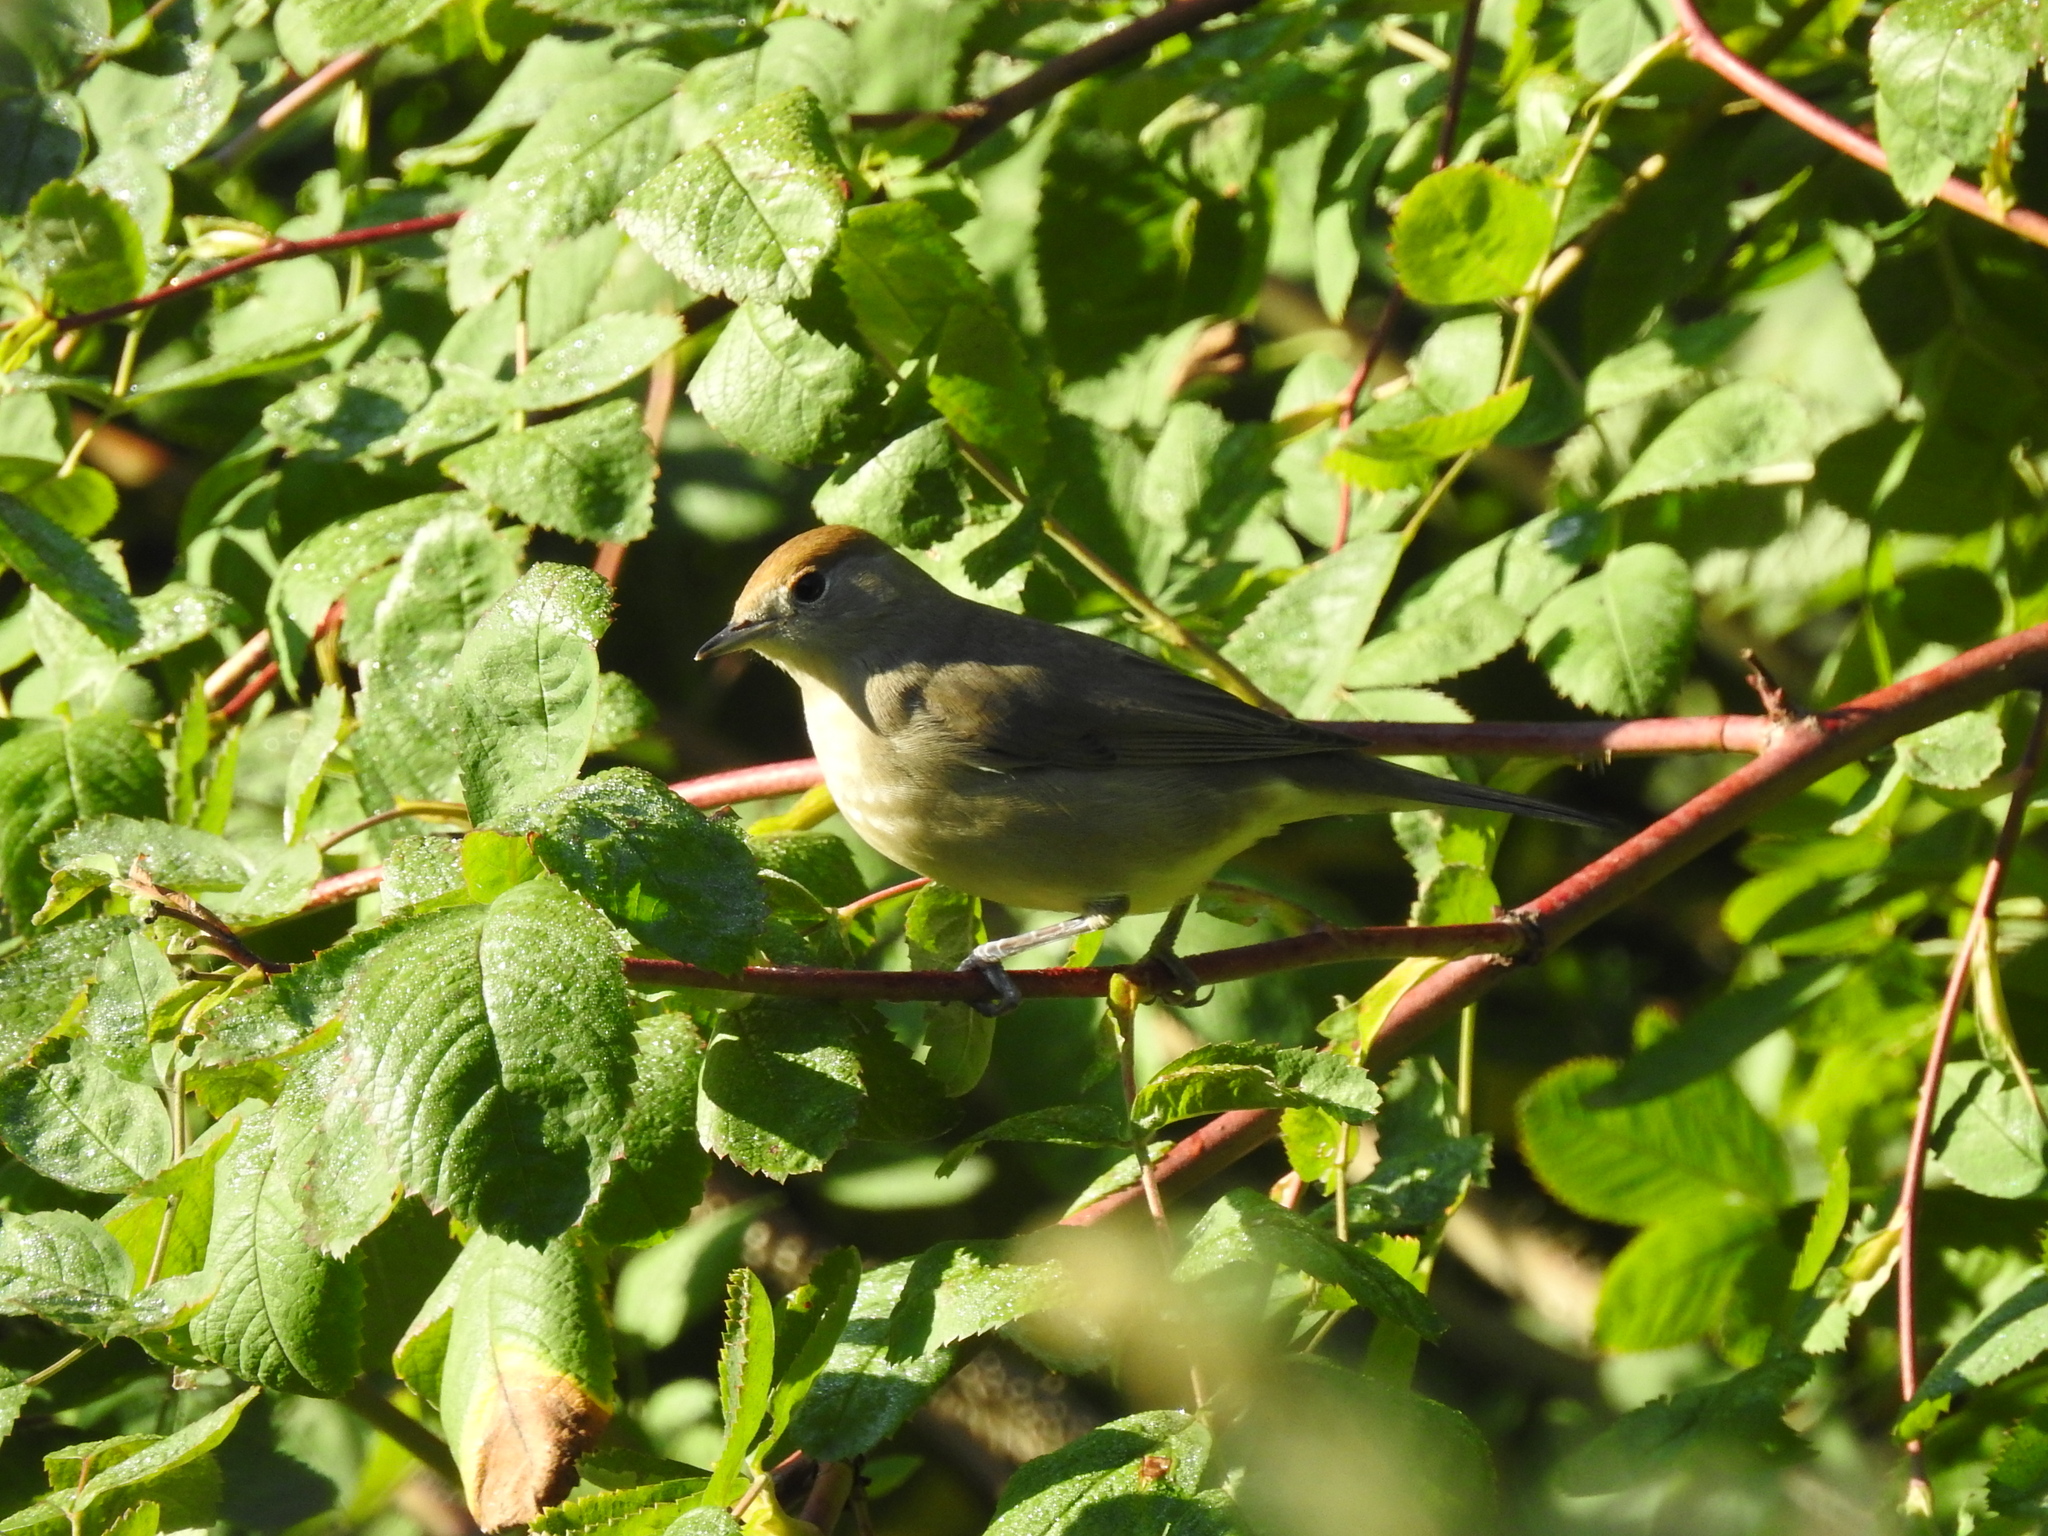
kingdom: Animalia
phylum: Chordata
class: Aves
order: Passeriformes
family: Sylviidae
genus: Sylvia
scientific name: Sylvia atricapilla
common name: Eurasian blackcap
